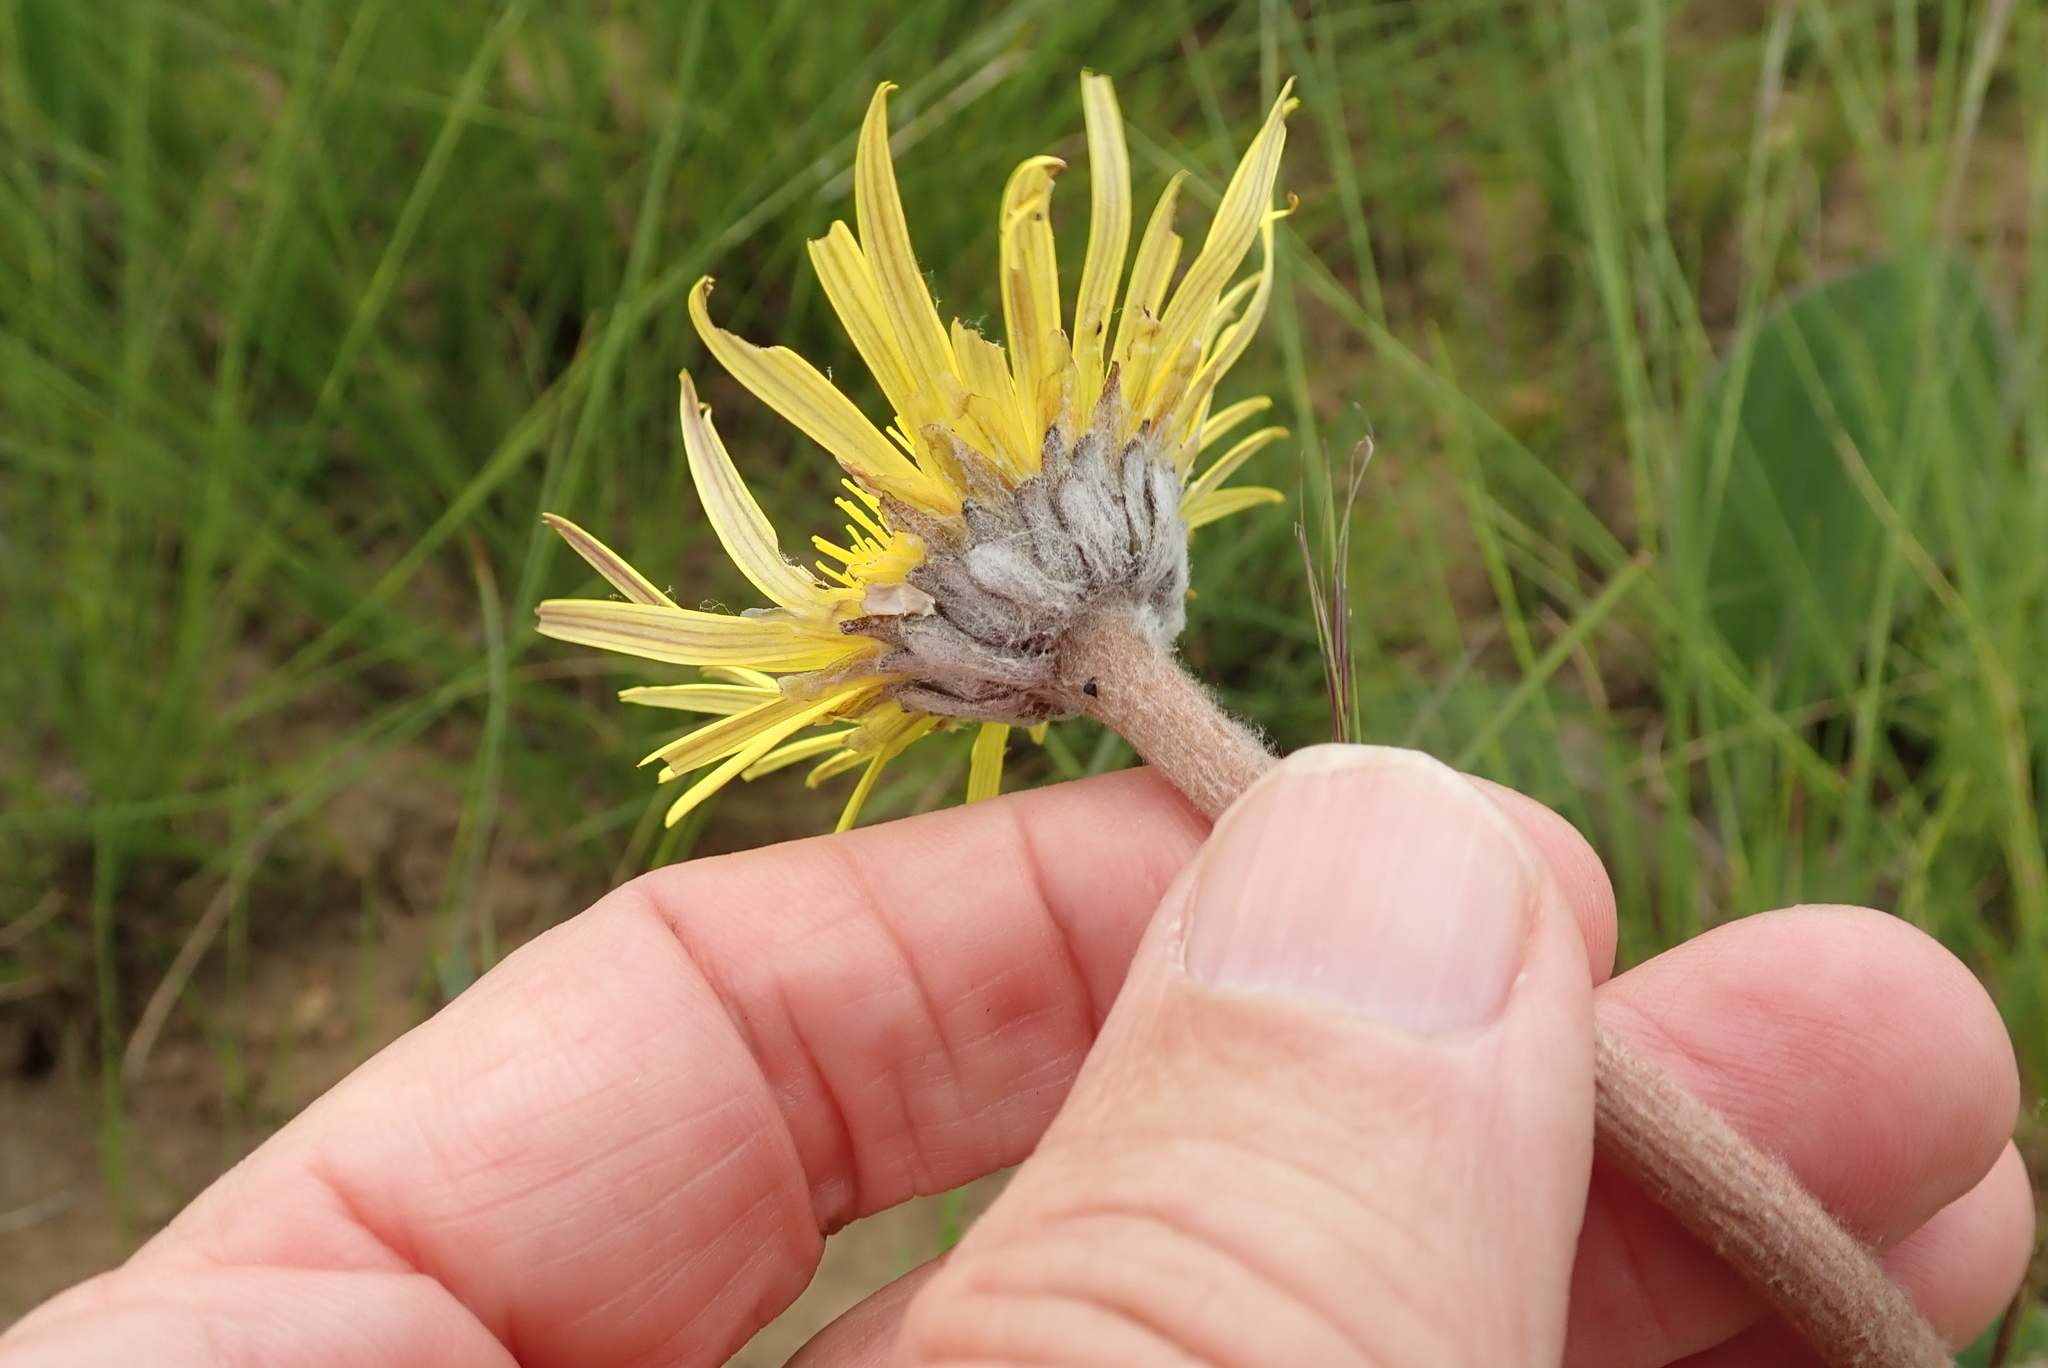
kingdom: Plantae
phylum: Tracheophyta
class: Magnoliopsida
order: Asterales
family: Asteraceae
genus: Haplocarpha
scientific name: Haplocarpha scaposa
